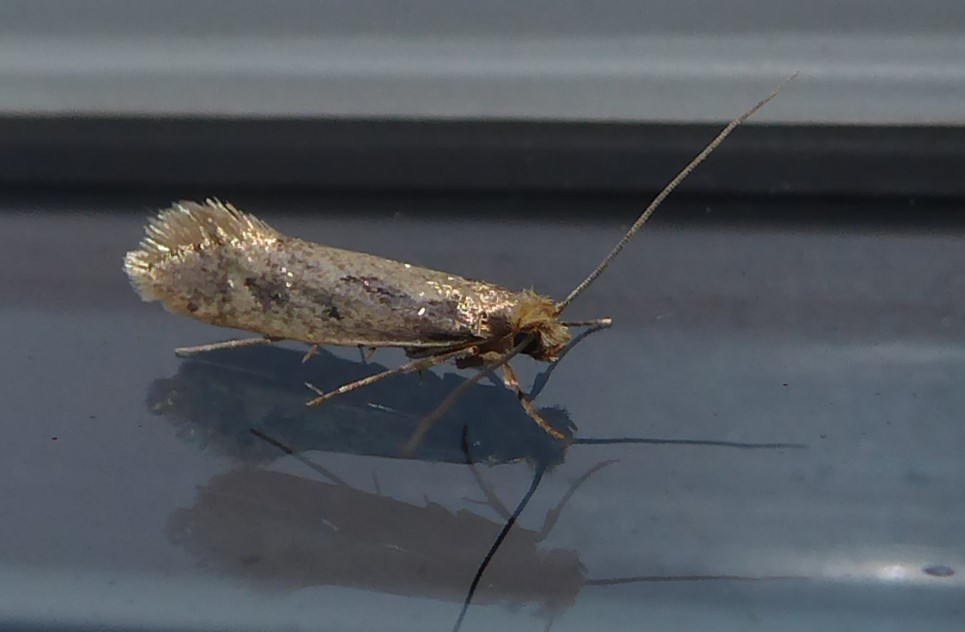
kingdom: Animalia
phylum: Arthropoda
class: Insecta
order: Lepidoptera
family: Tineidae
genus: Tinea
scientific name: Tinea pallescentella
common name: Large pale clothes moth
